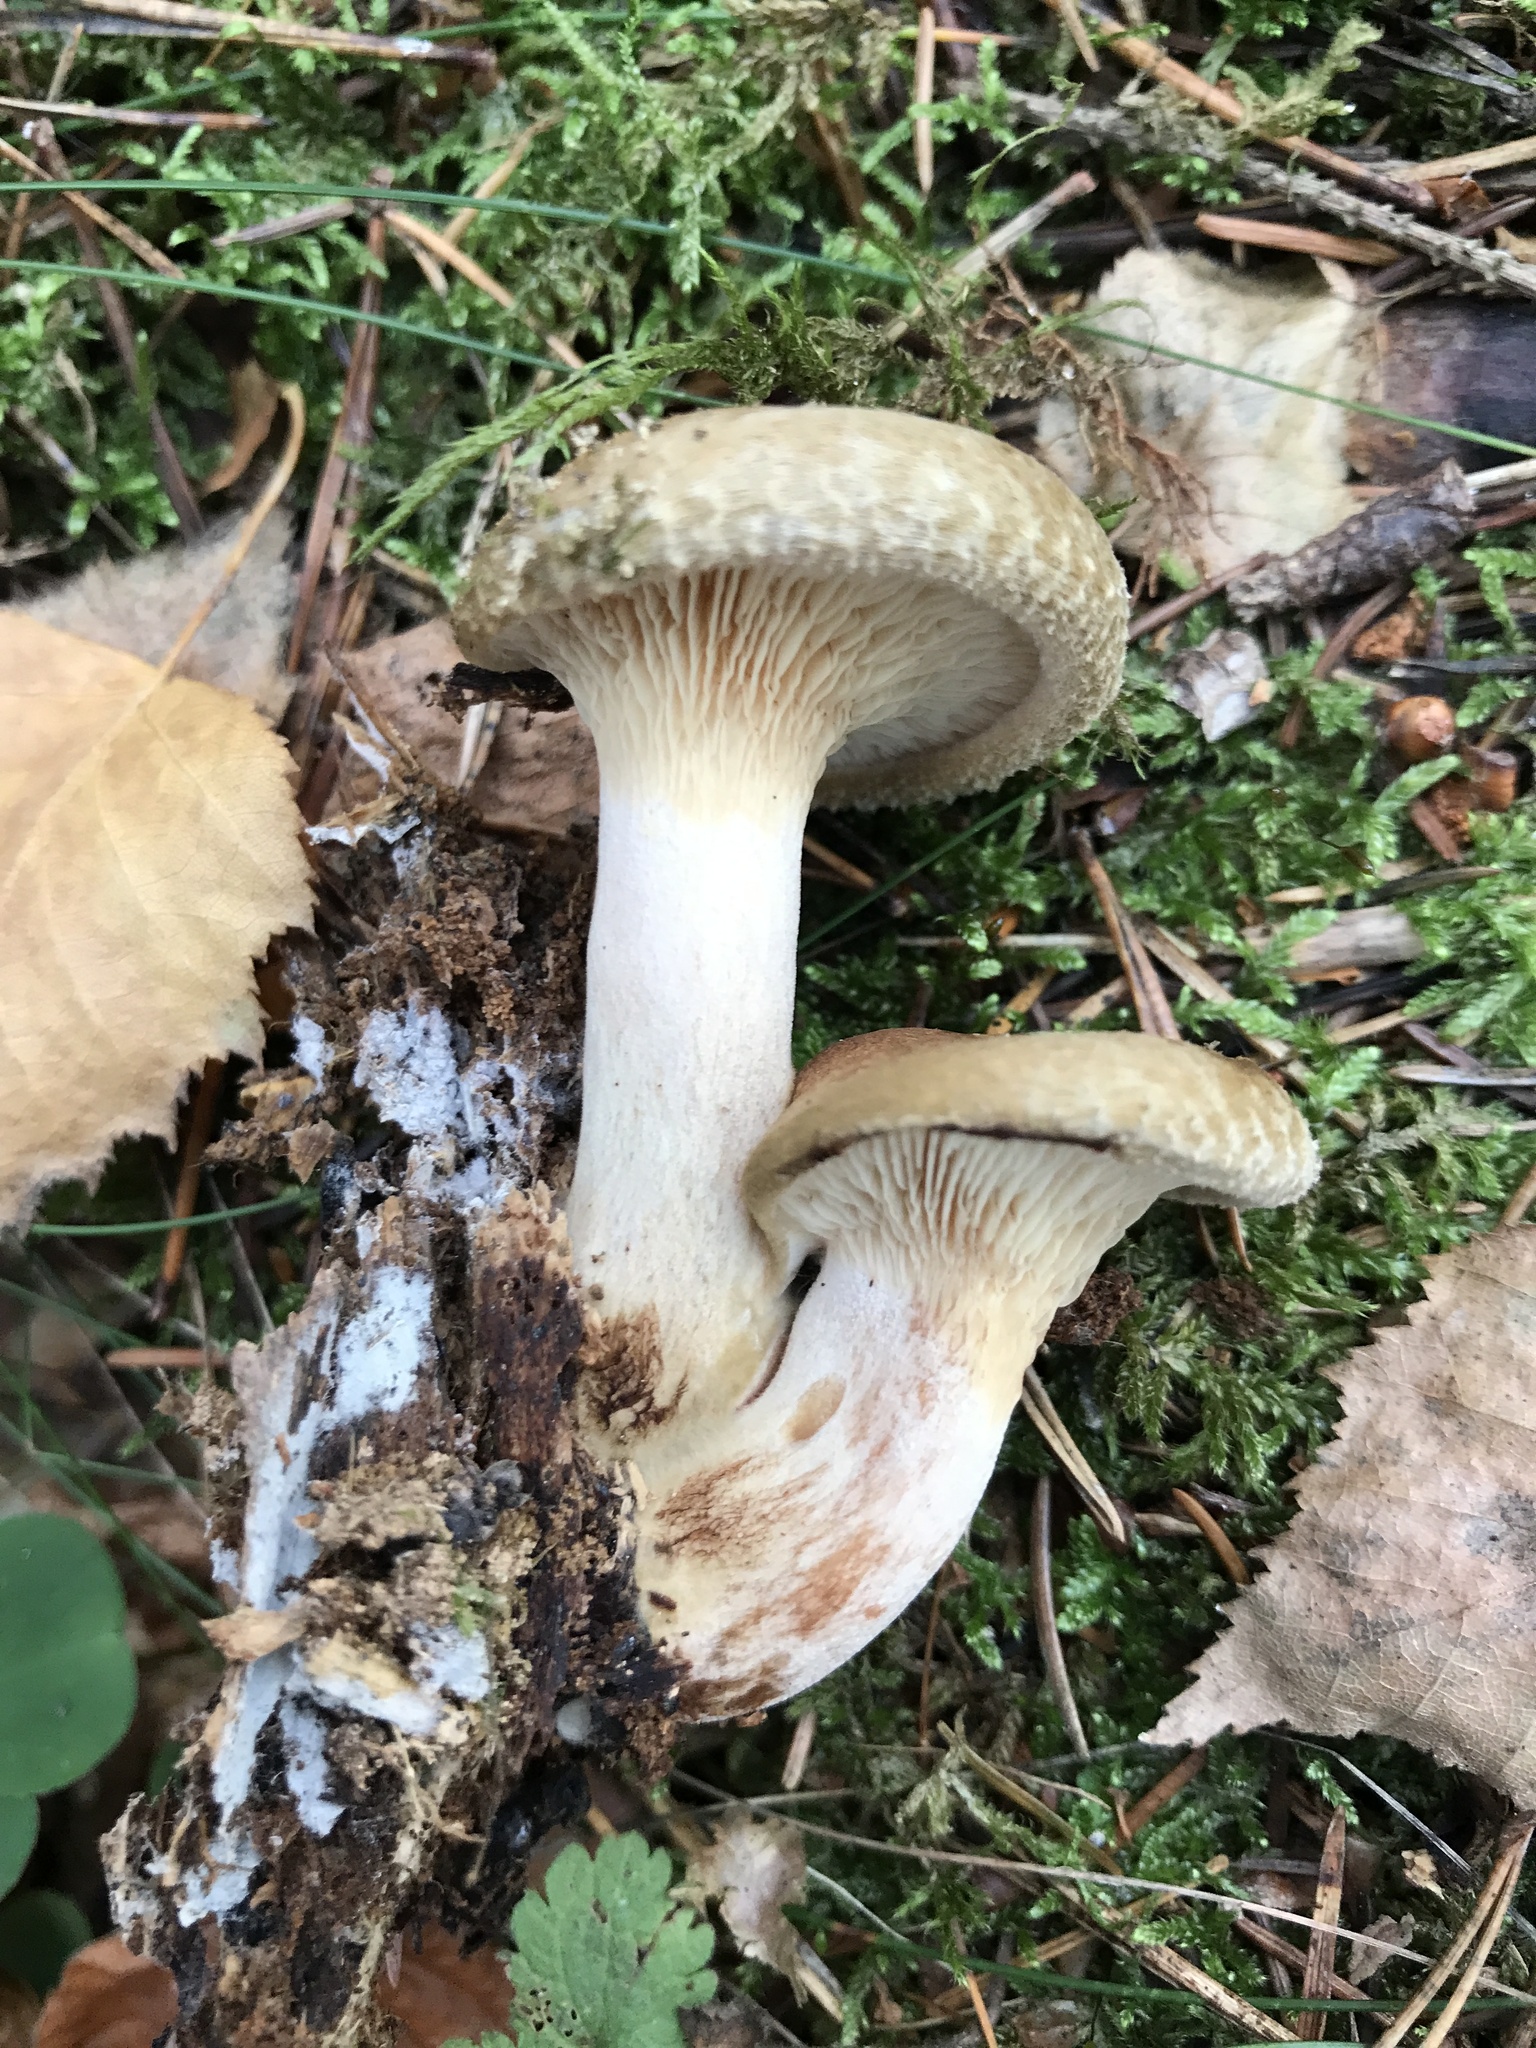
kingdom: Fungi
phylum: Basidiomycota
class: Agaricomycetes
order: Boletales
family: Paxillaceae
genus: Paxillus
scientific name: Paxillus involutus
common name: Brown roll rim
